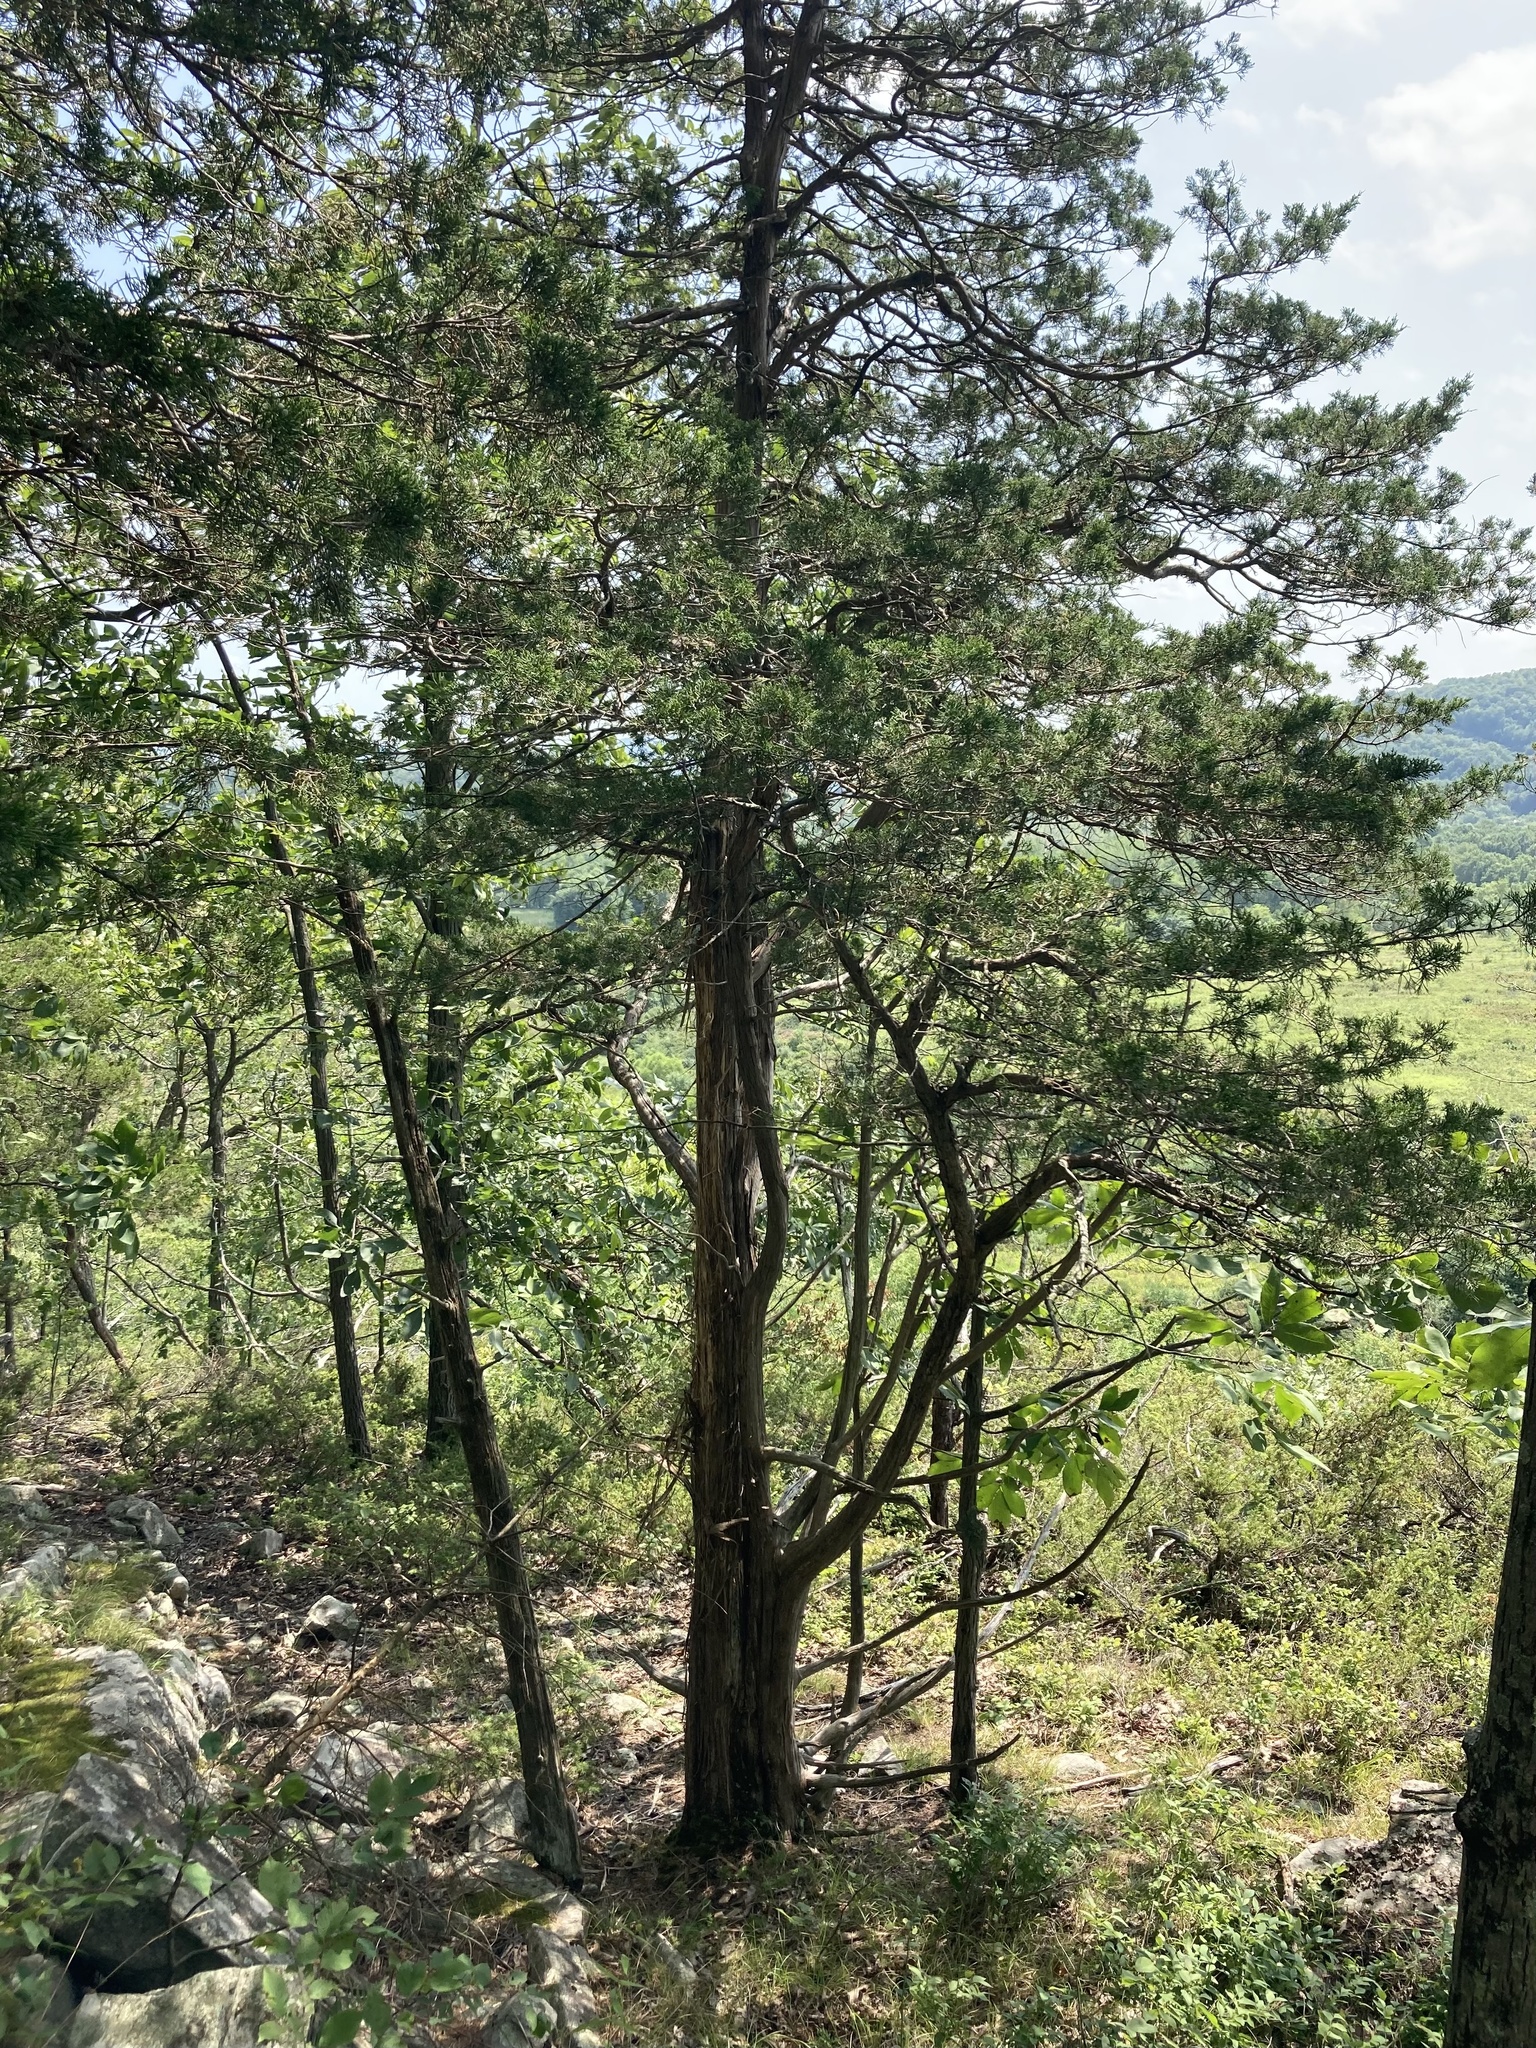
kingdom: Plantae
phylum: Tracheophyta
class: Pinopsida
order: Pinales
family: Cupressaceae
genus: Juniperus
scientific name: Juniperus virginiana
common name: Red juniper
